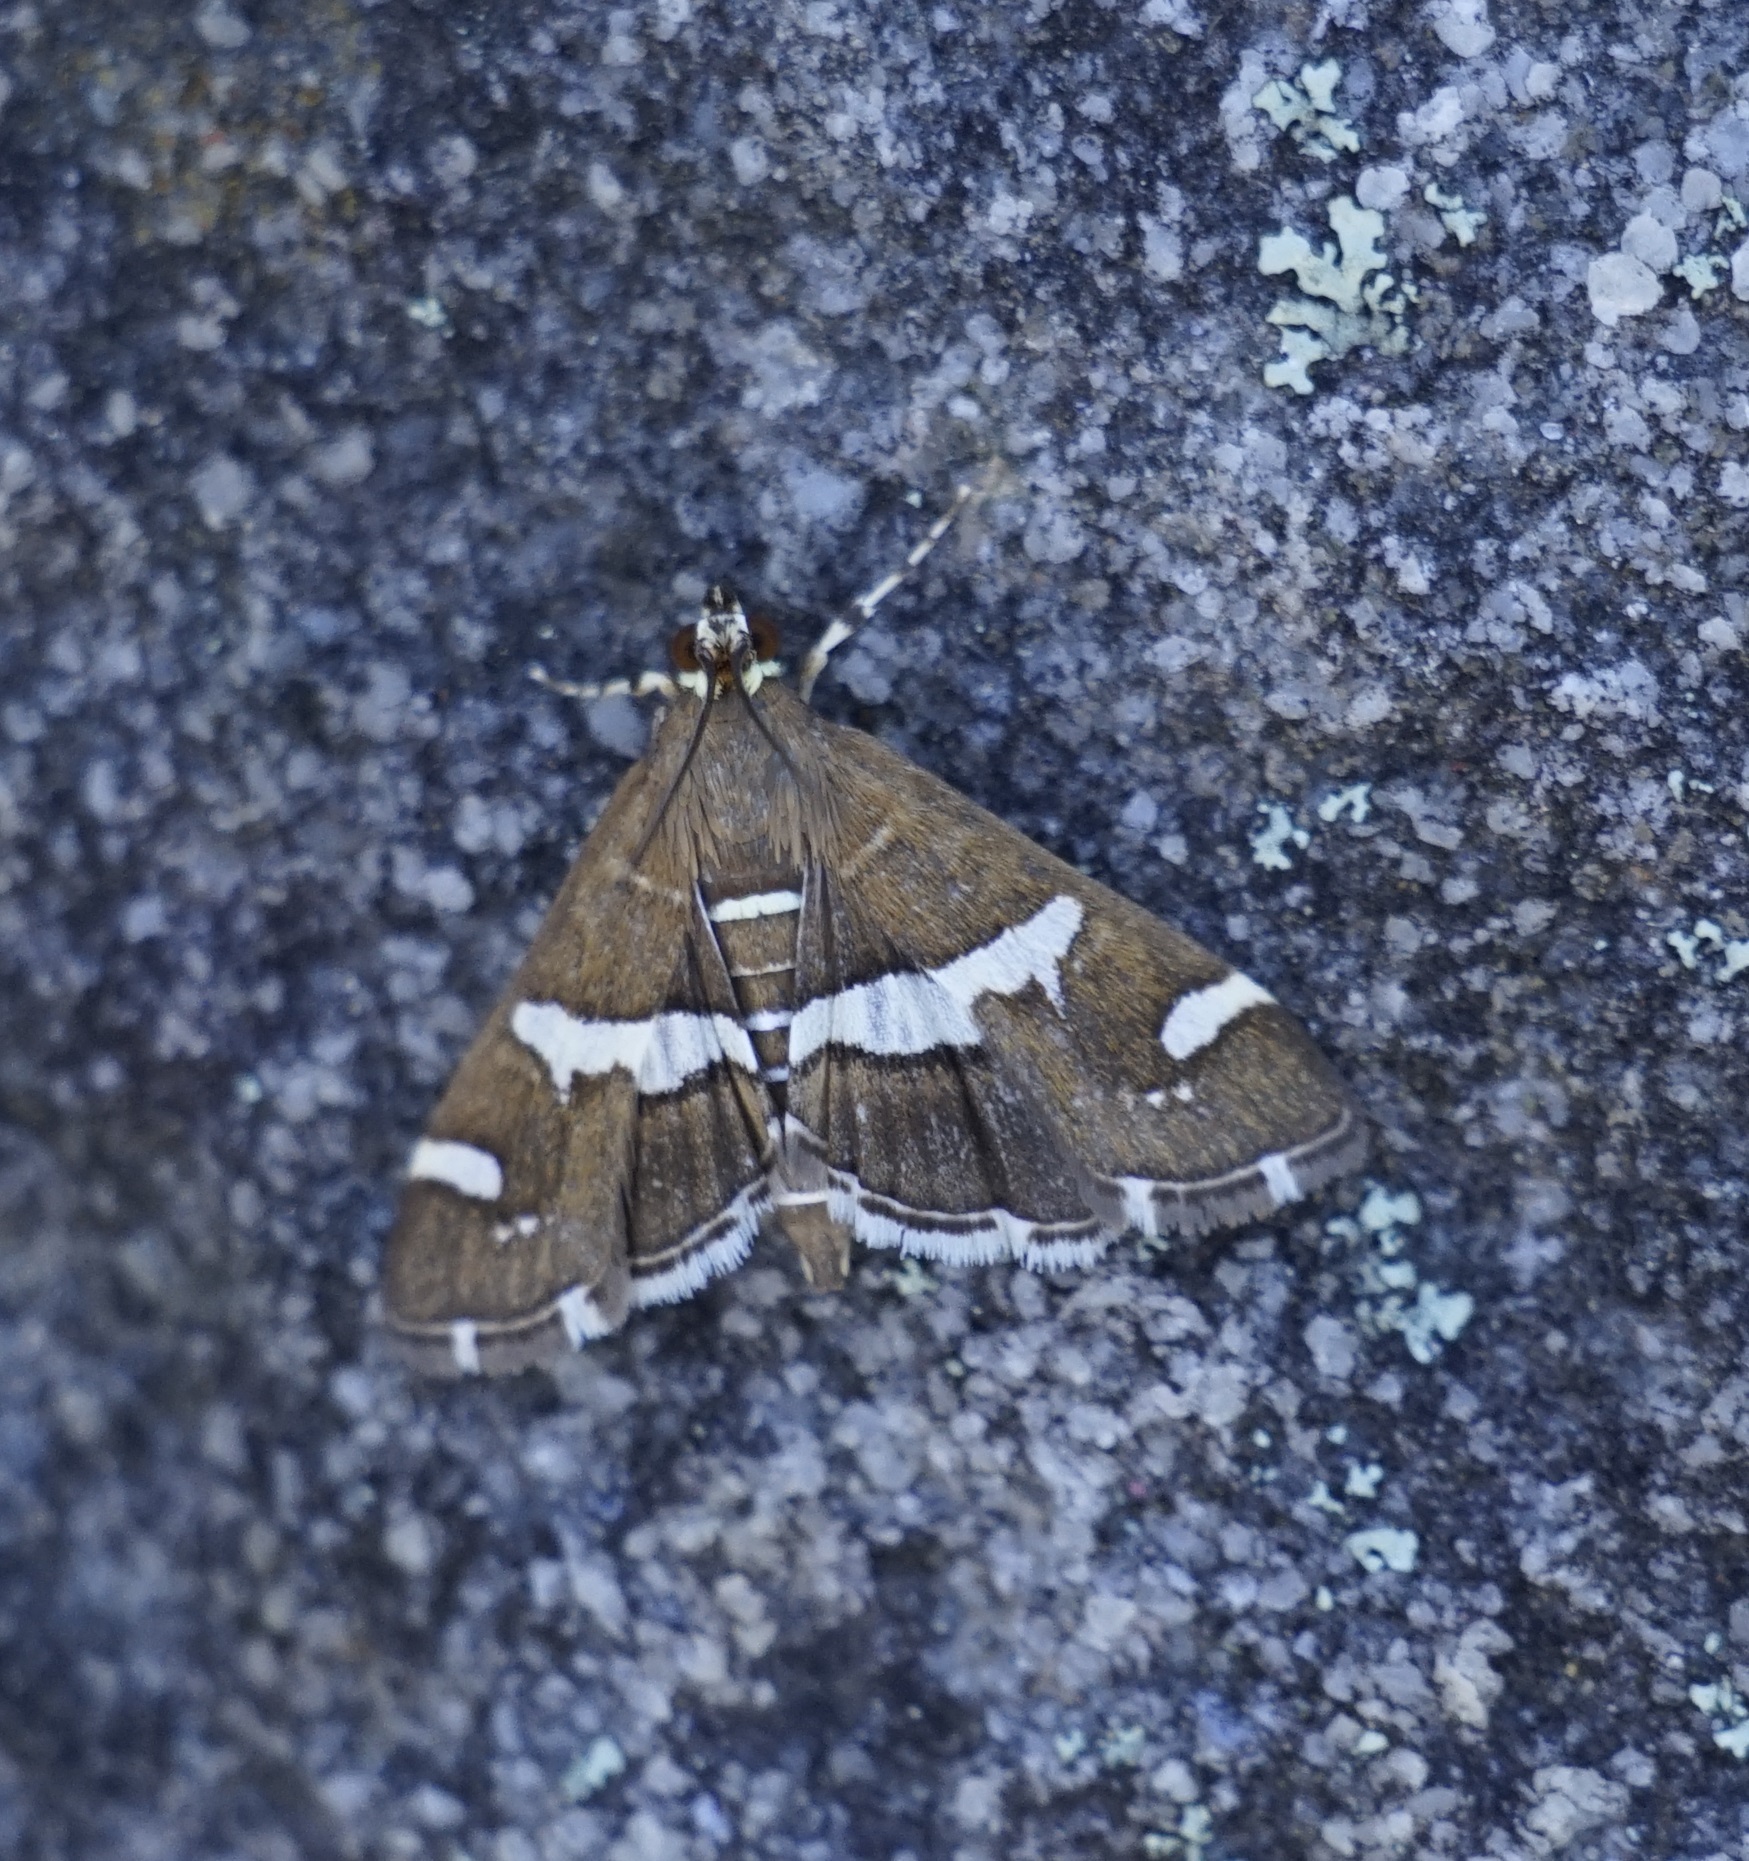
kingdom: Animalia
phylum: Arthropoda
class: Insecta
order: Lepidoptera
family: Crambidae
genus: Spoladea
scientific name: Spoladea recurvalis
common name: Beet webworm moth
